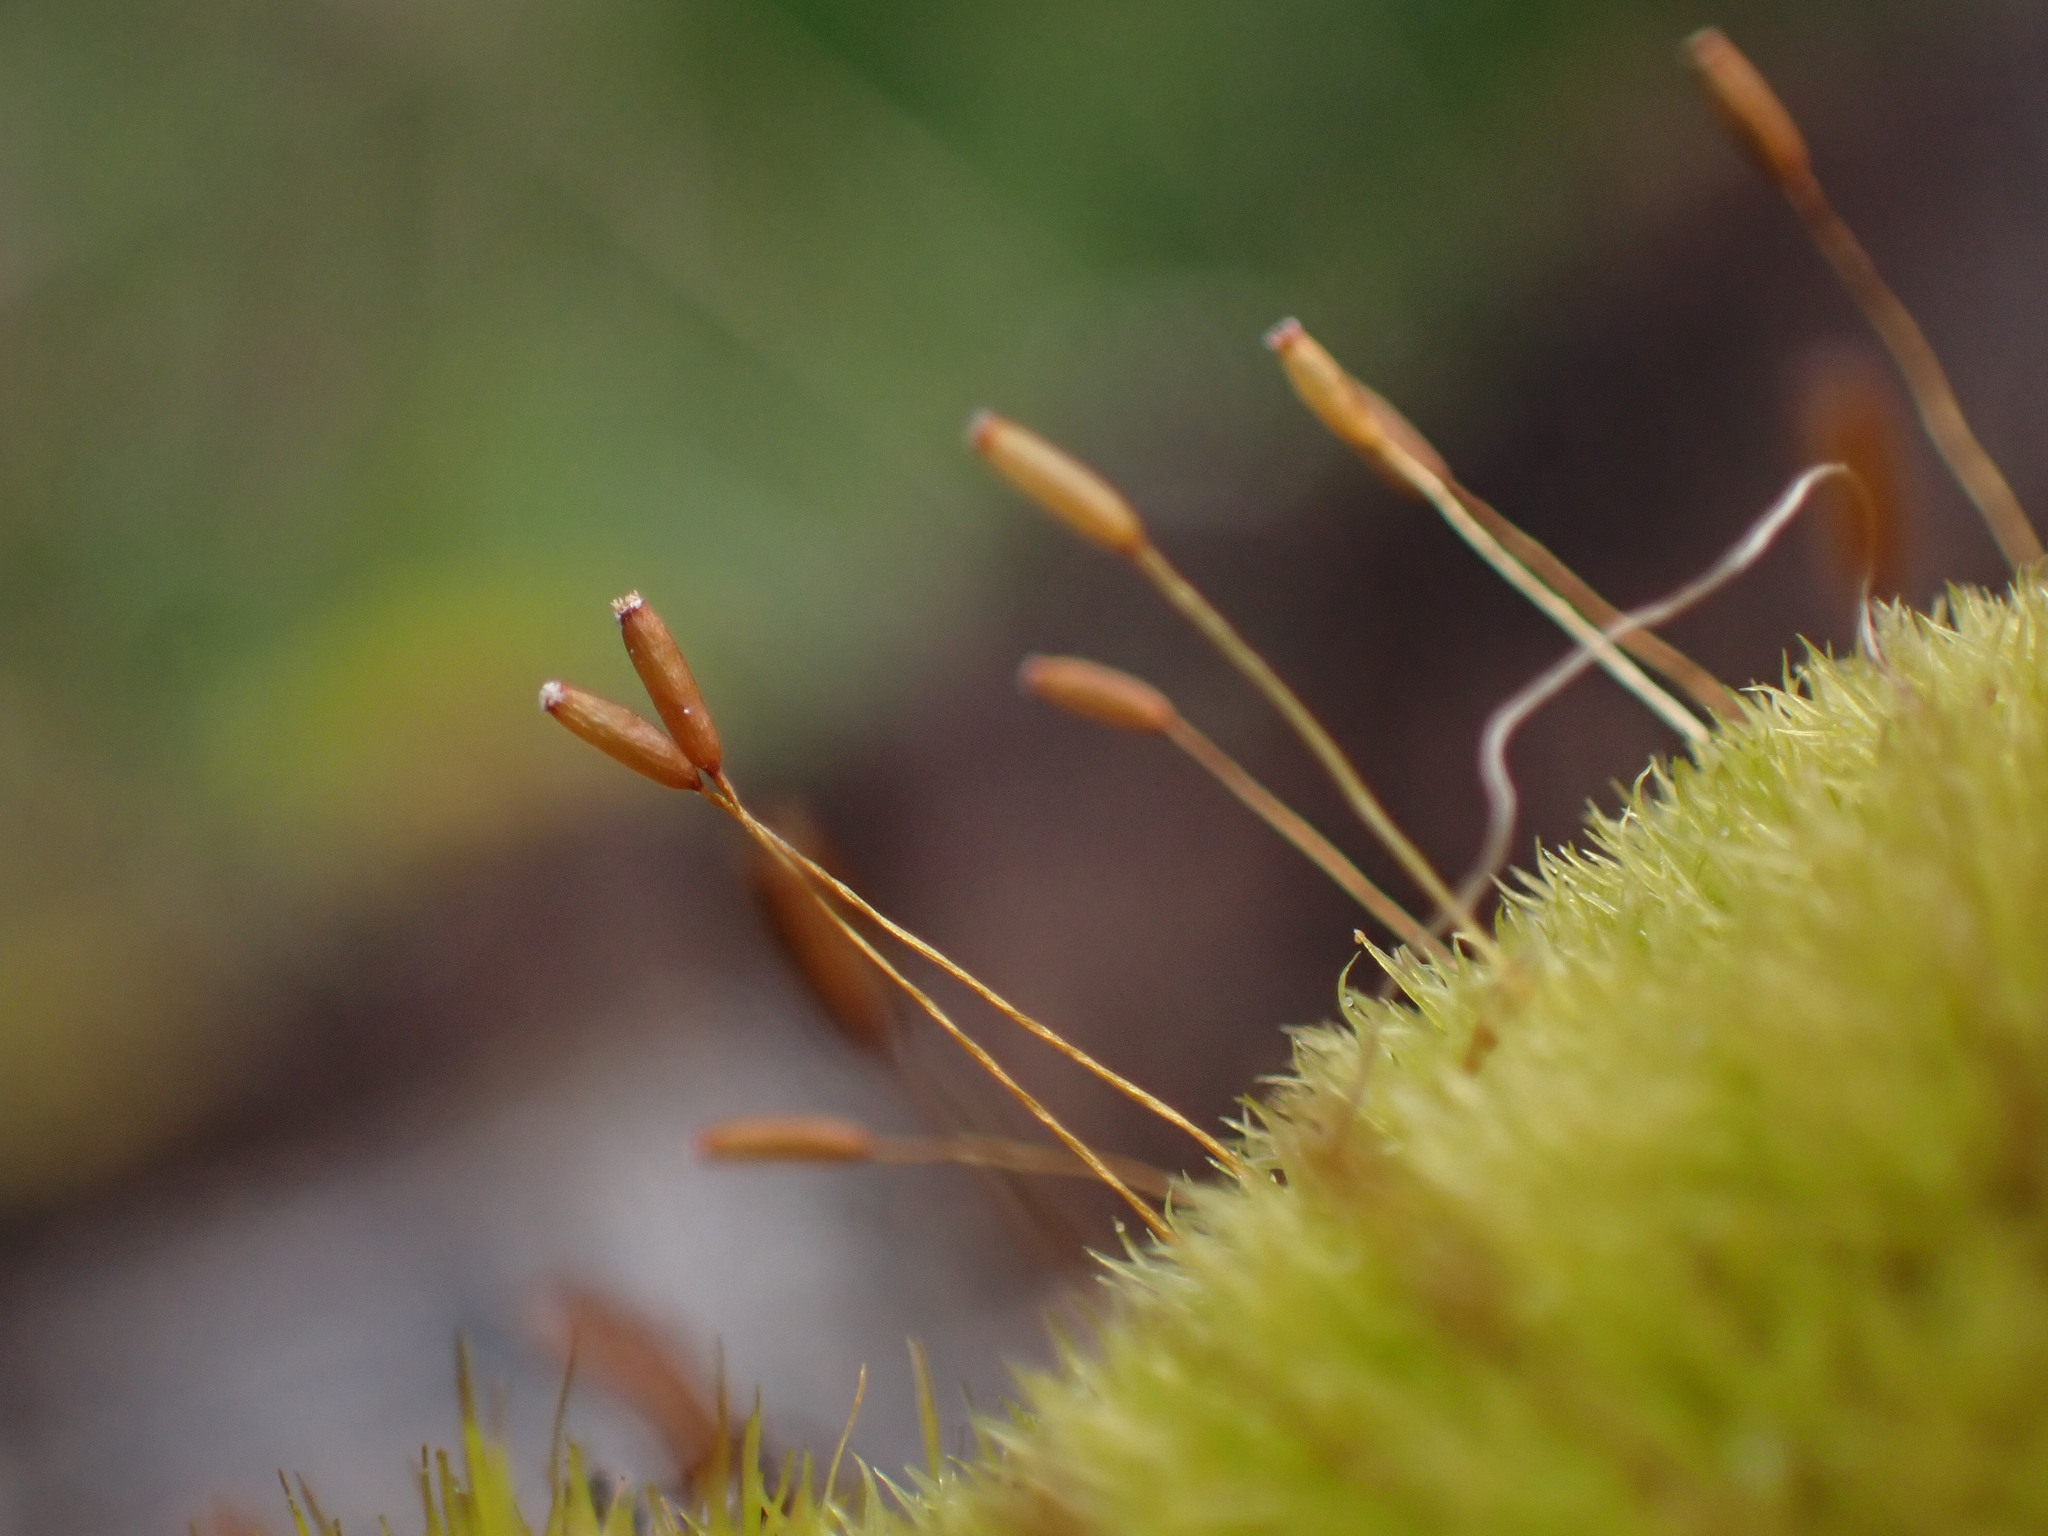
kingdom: Plantae
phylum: Bryophyta
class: Bryopsida
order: Dicranales
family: Rhabdoweisiaceae
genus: Dicranoweisia
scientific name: Dicranoweisia cirrata
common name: Common pincushion
